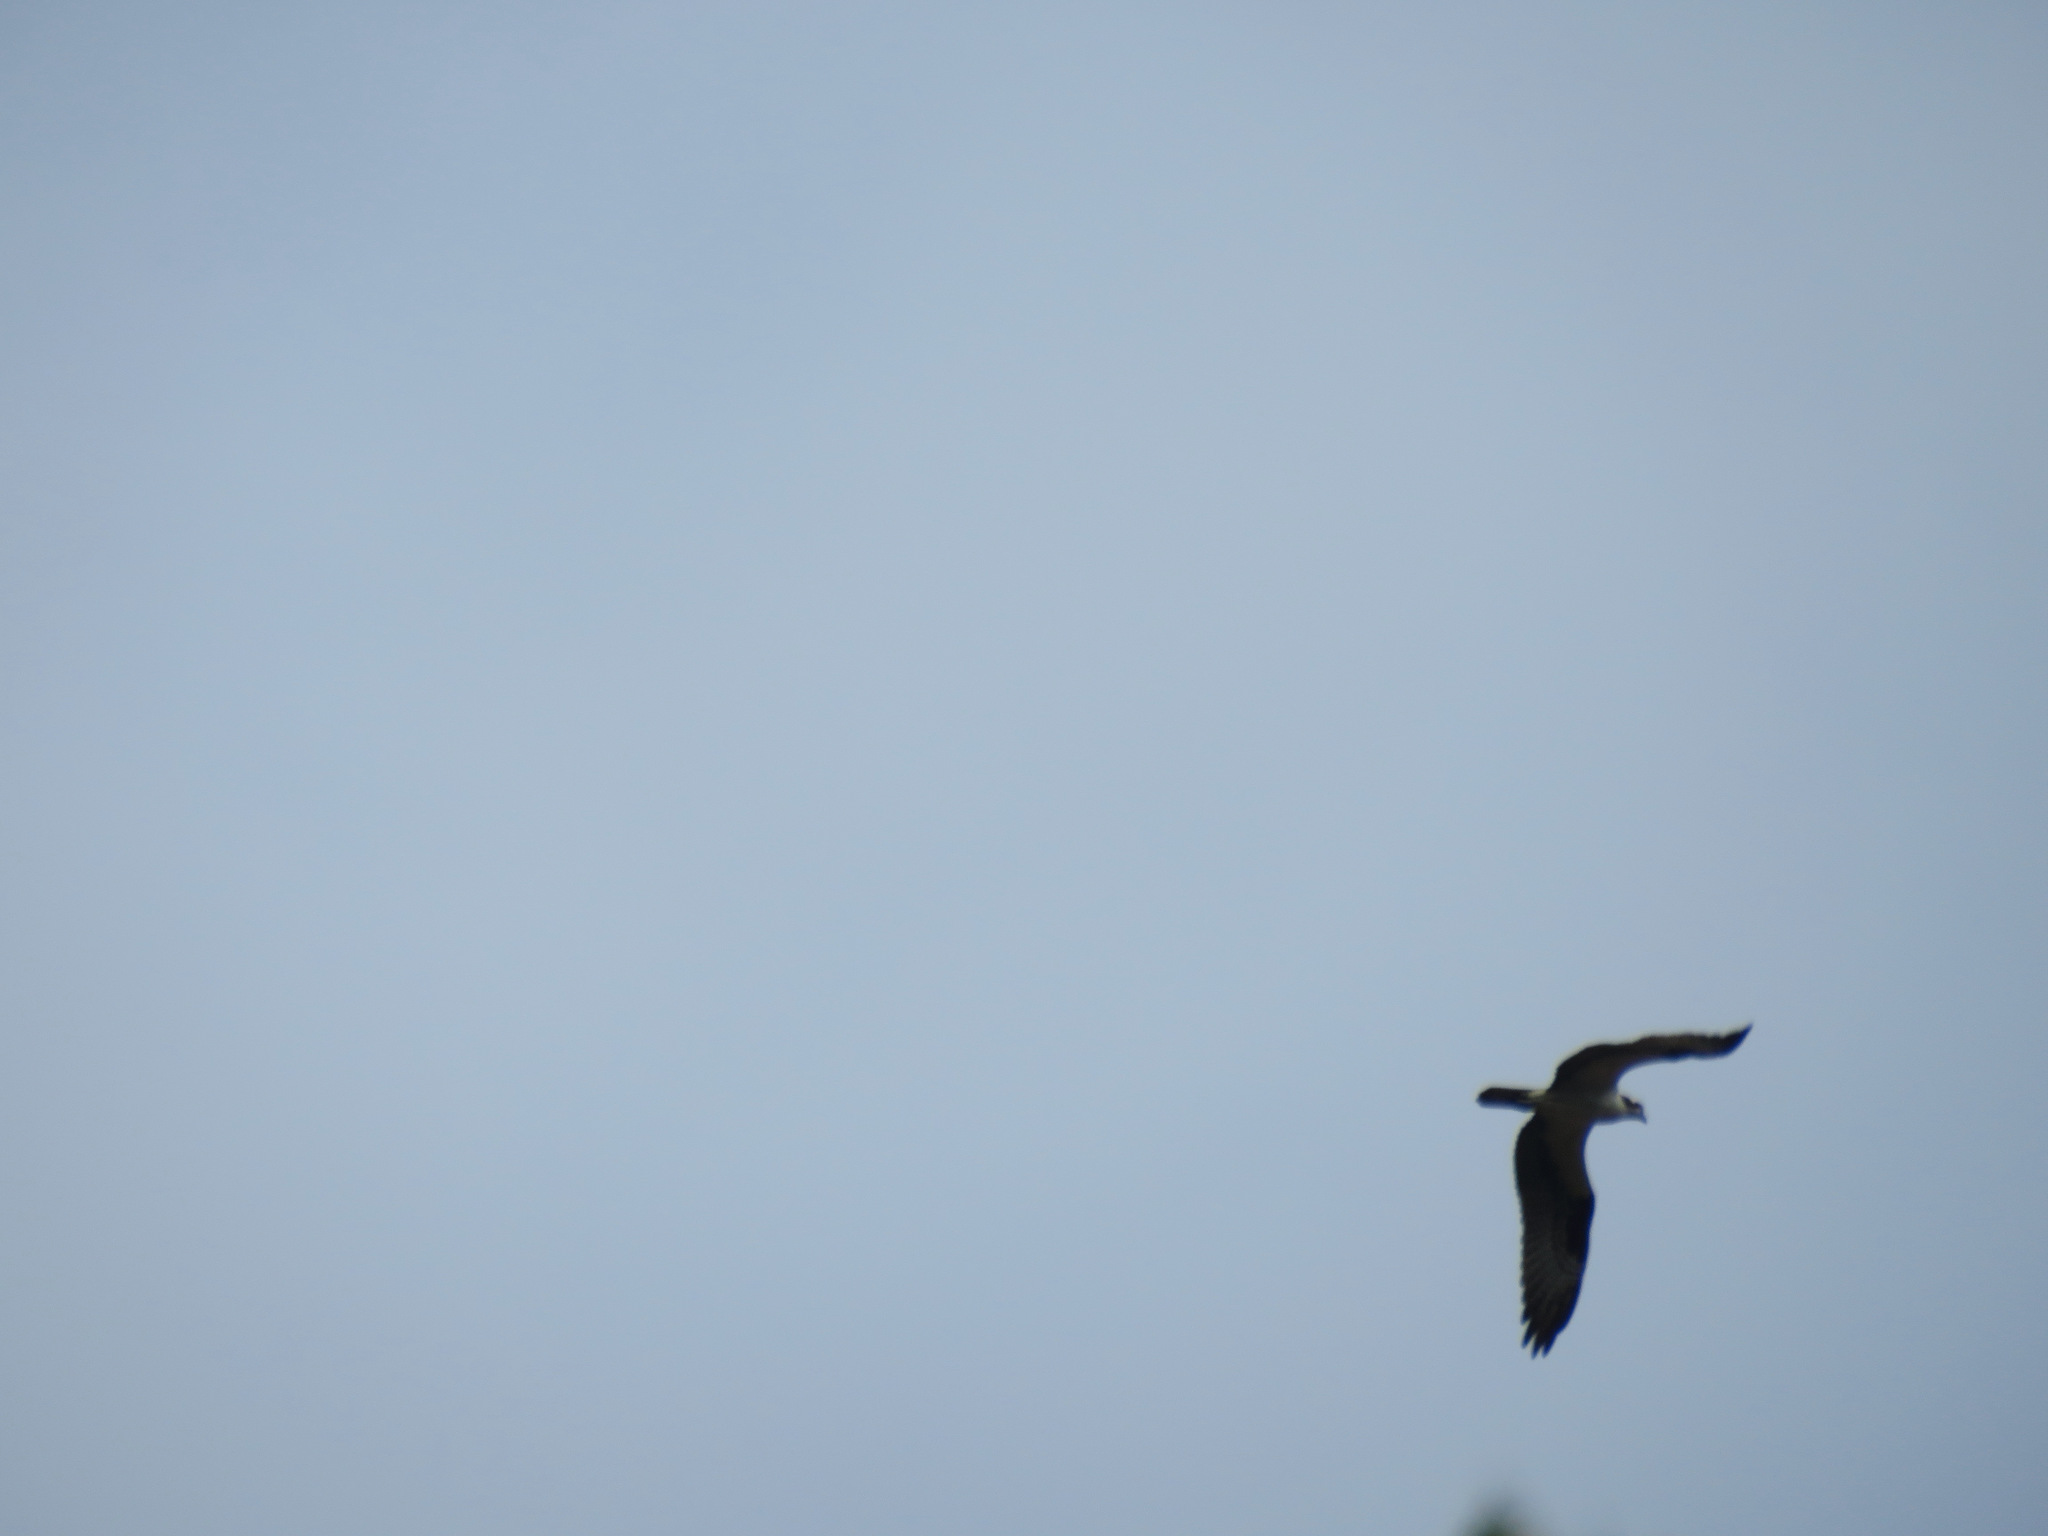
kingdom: Animalia
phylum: Chordata
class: Aves
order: Accipitriformes
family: Pandionidae
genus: Pandion
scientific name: Pandion haliaetus
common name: Osprey
